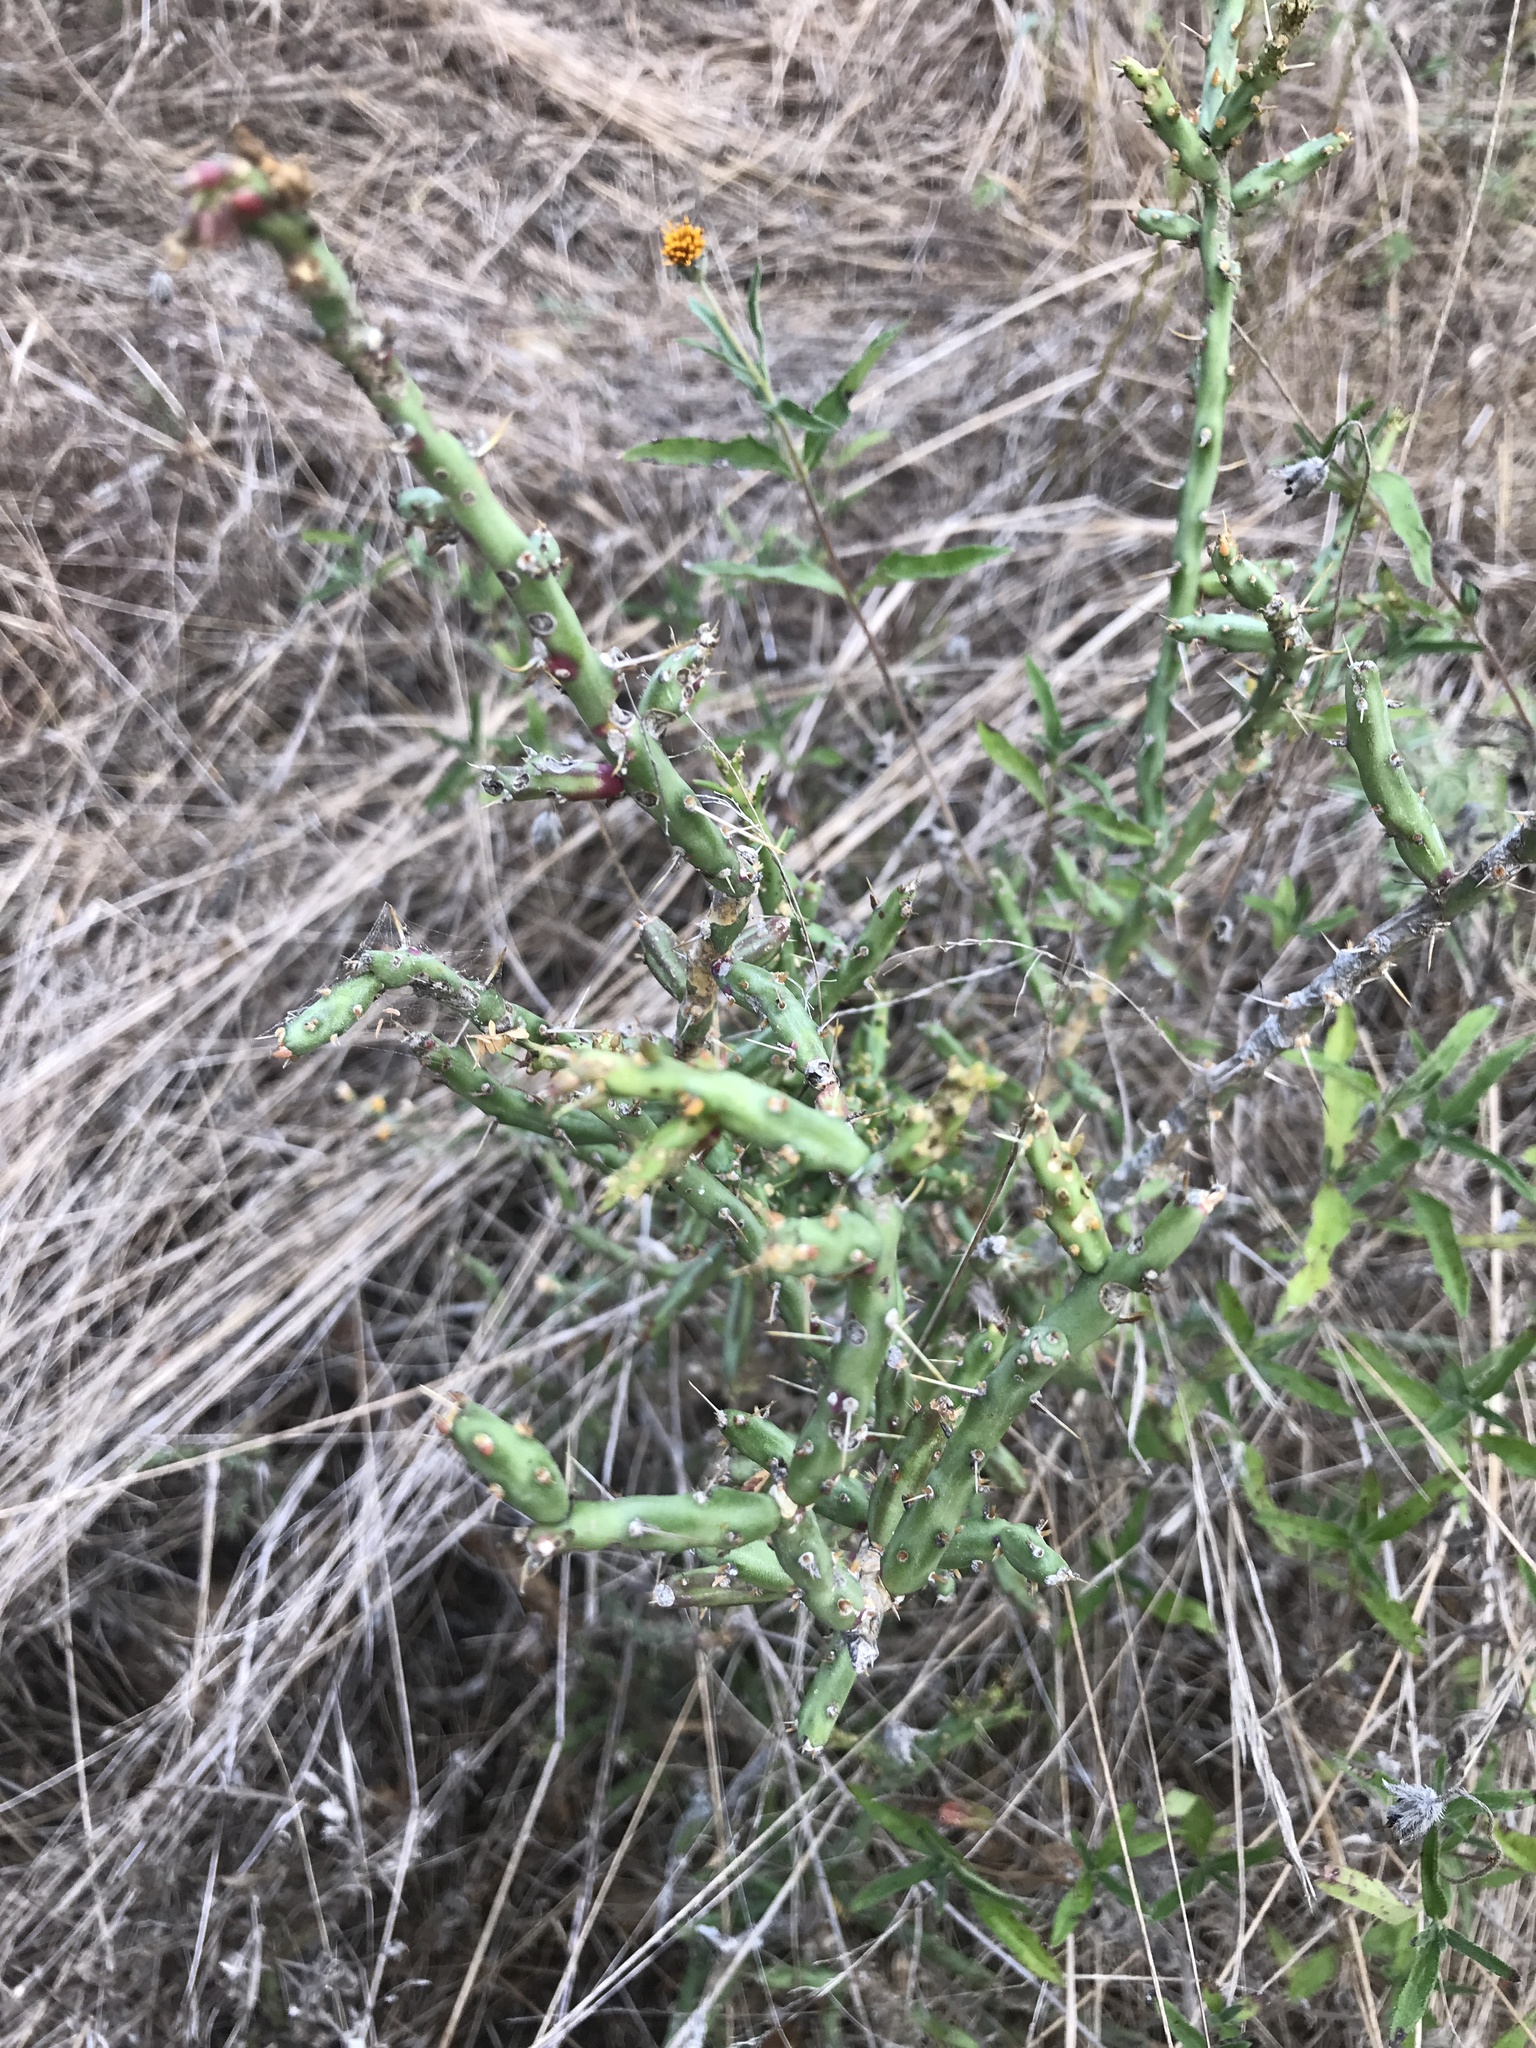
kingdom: Plantae
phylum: Tracheophyta
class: Magnoliopsida
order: Caryophyllales
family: Cactaceae
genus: Cylindropuntia
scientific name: Cylindropuntia leptocaulis
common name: Christmas cactus
